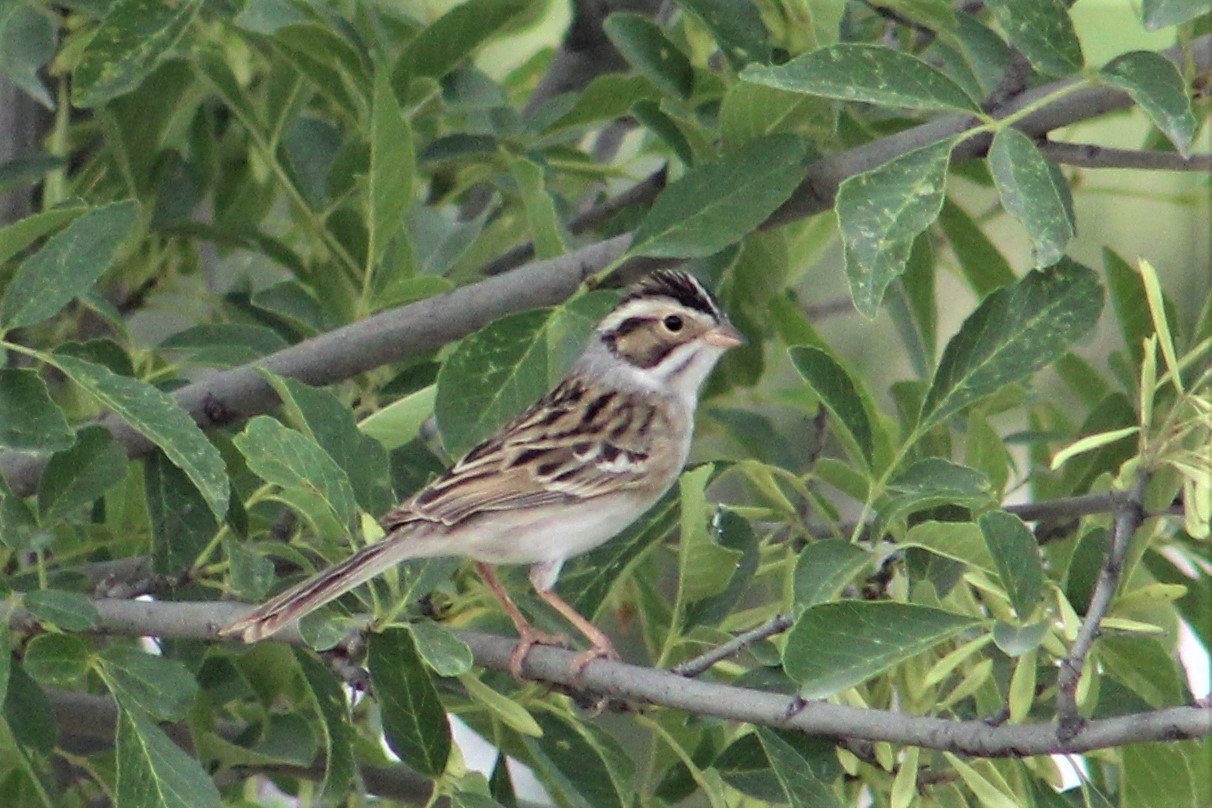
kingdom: Animalia
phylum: Chordata
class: Aves
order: Passeriformes
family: Passerellidae
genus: Spizella
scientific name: Spizella pallida
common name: Clay-colored sparrow
